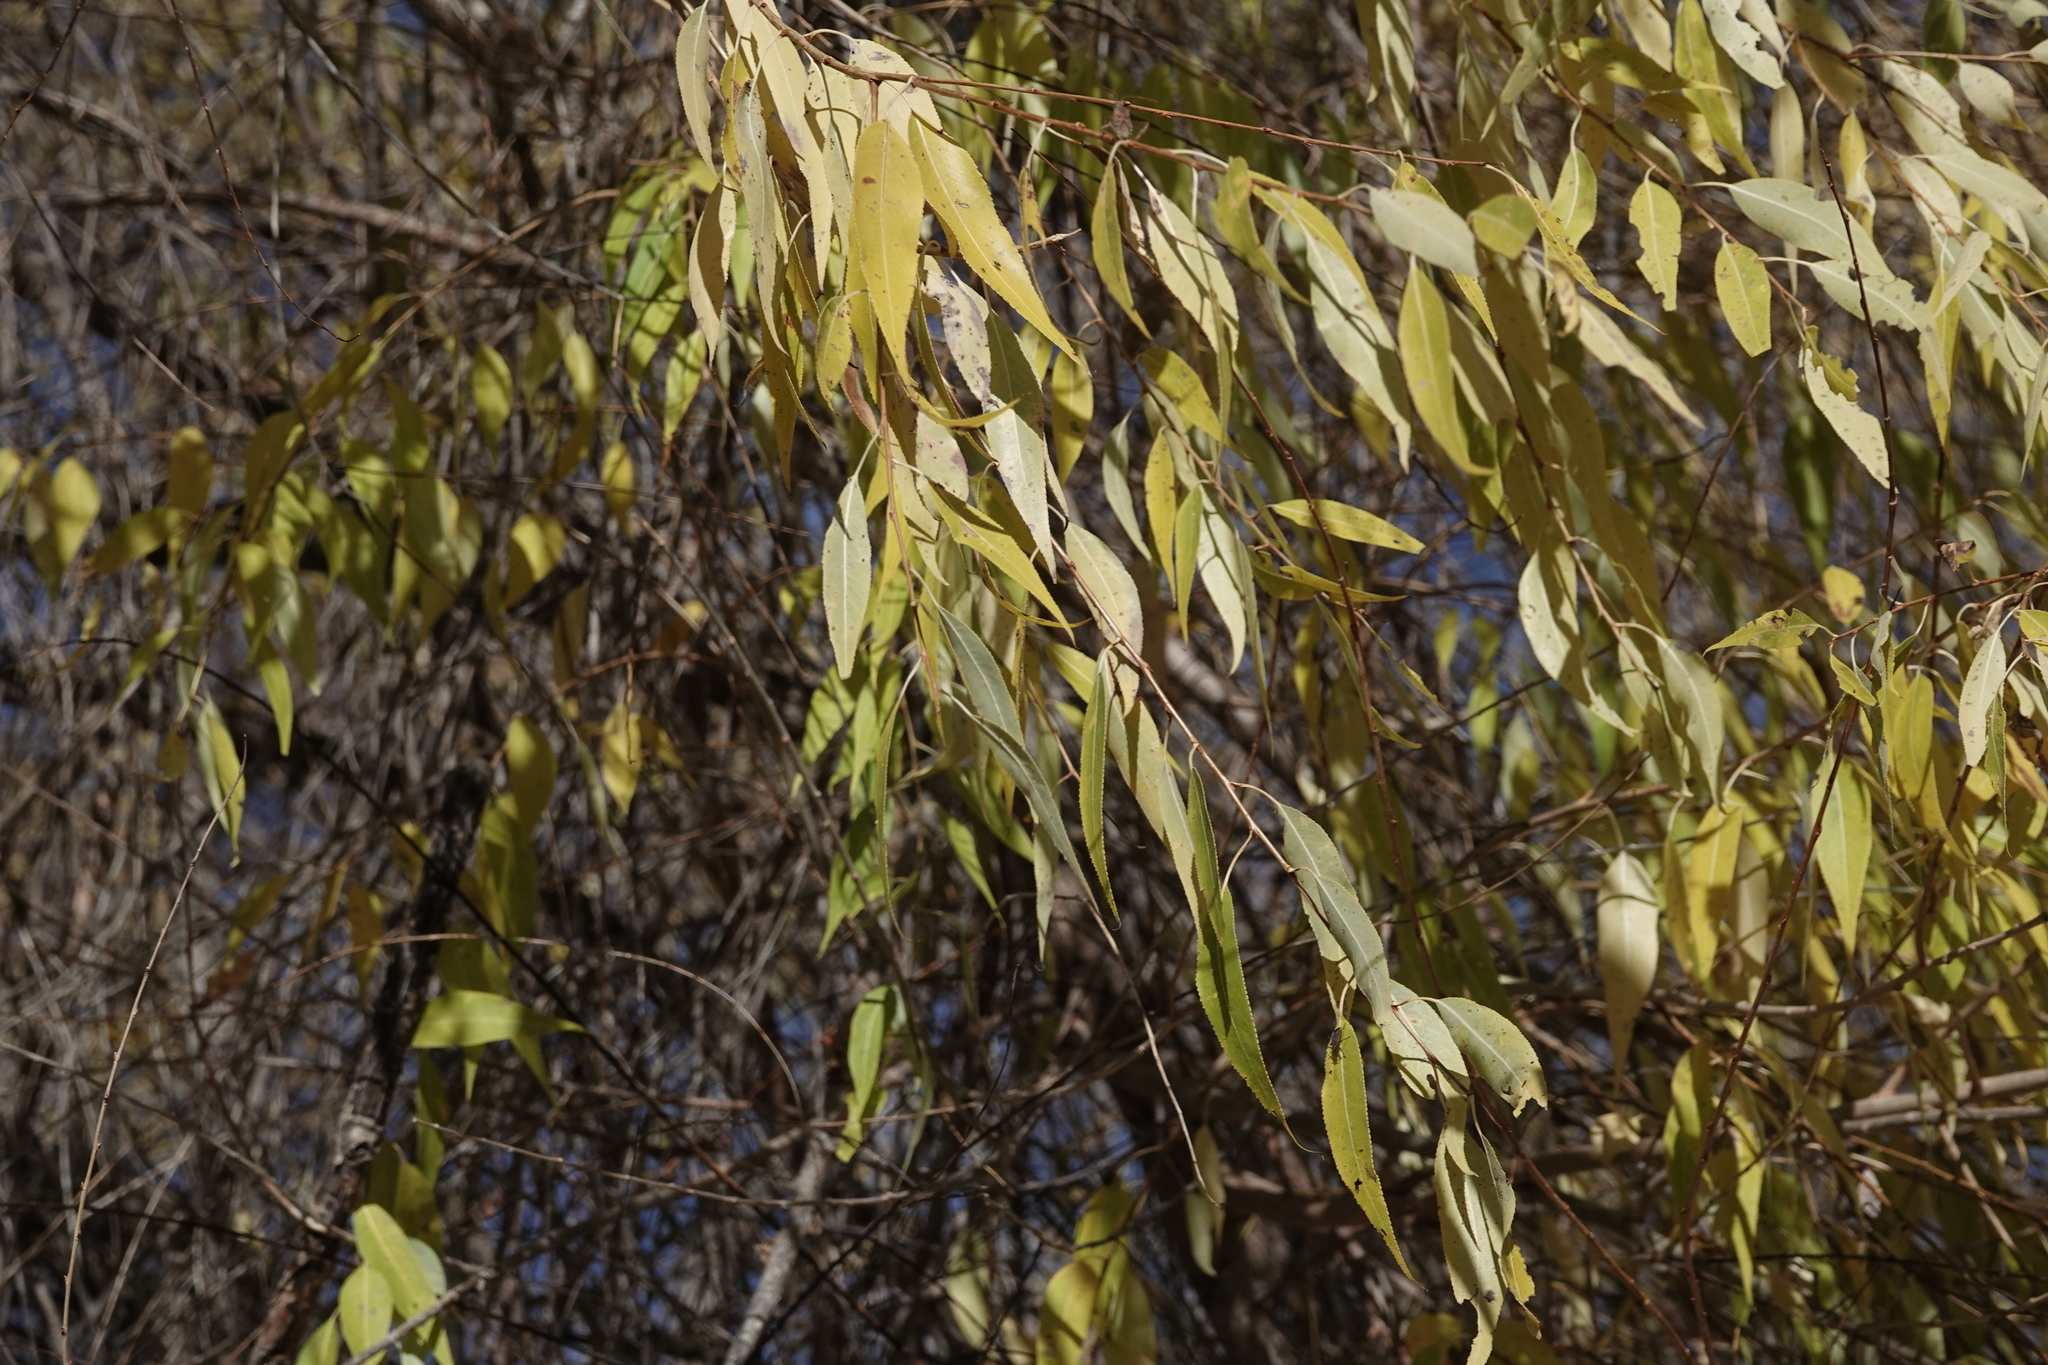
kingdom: Plantae
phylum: Tracheophyta
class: Magnoliopsida
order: Malpighiales
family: Salicaceae
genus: Salix
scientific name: Salix amygdaloides
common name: Peach leaf willow
